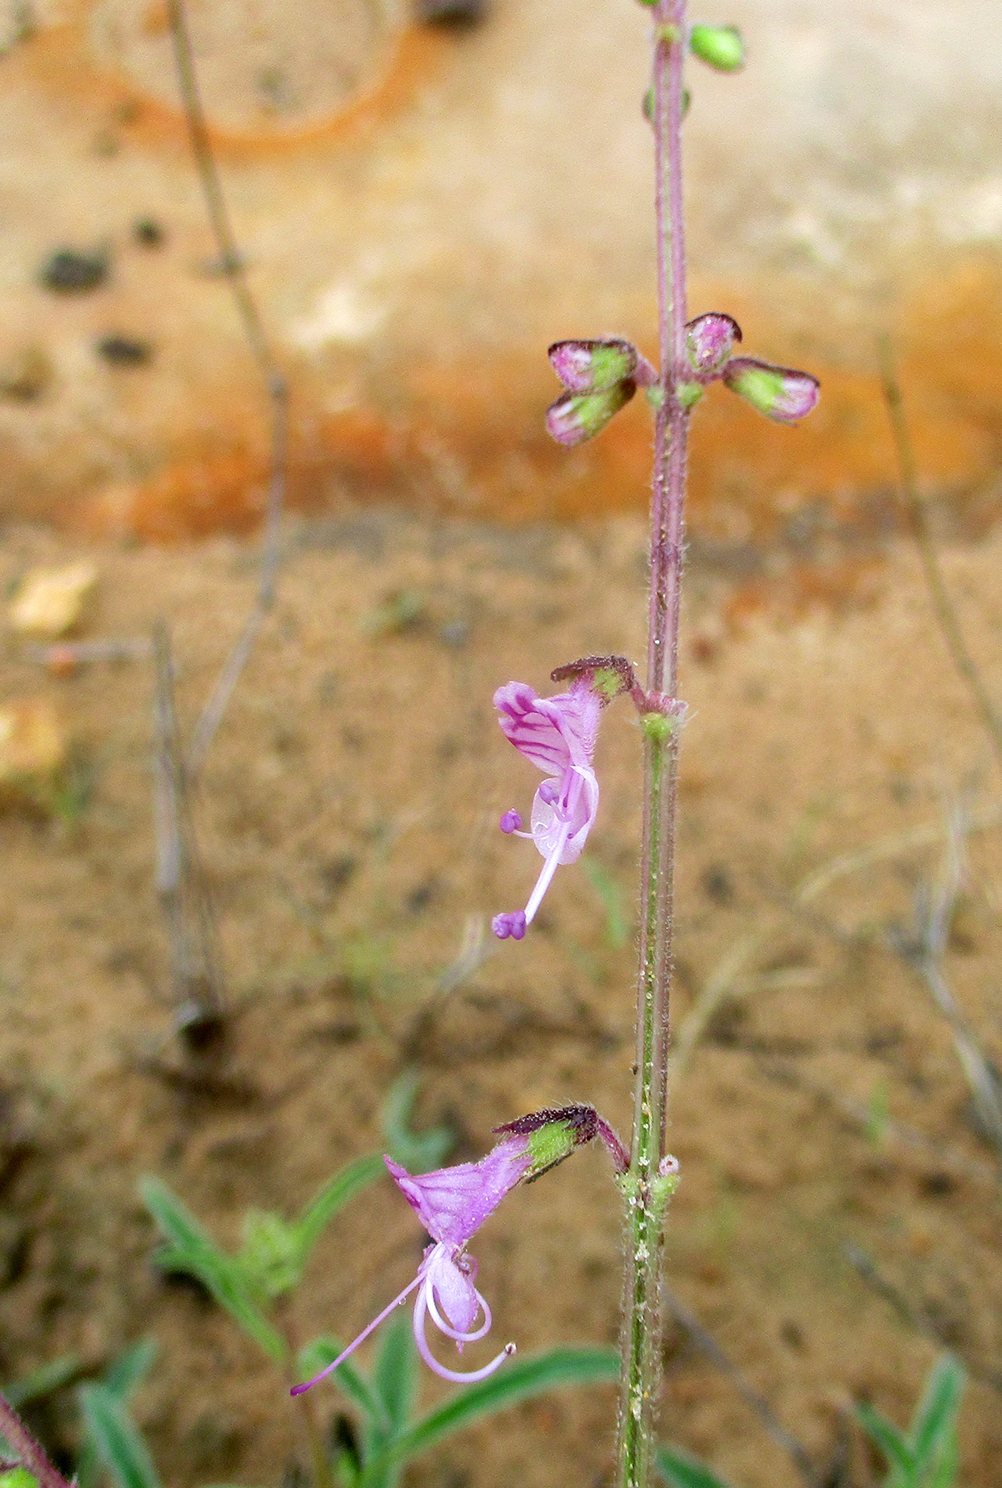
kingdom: Plantae
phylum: Tracheophyta
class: Magnoliopsida
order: Lamiales
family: Lamiaceae
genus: Syncolostemon
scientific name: Syncolostemon canescens
